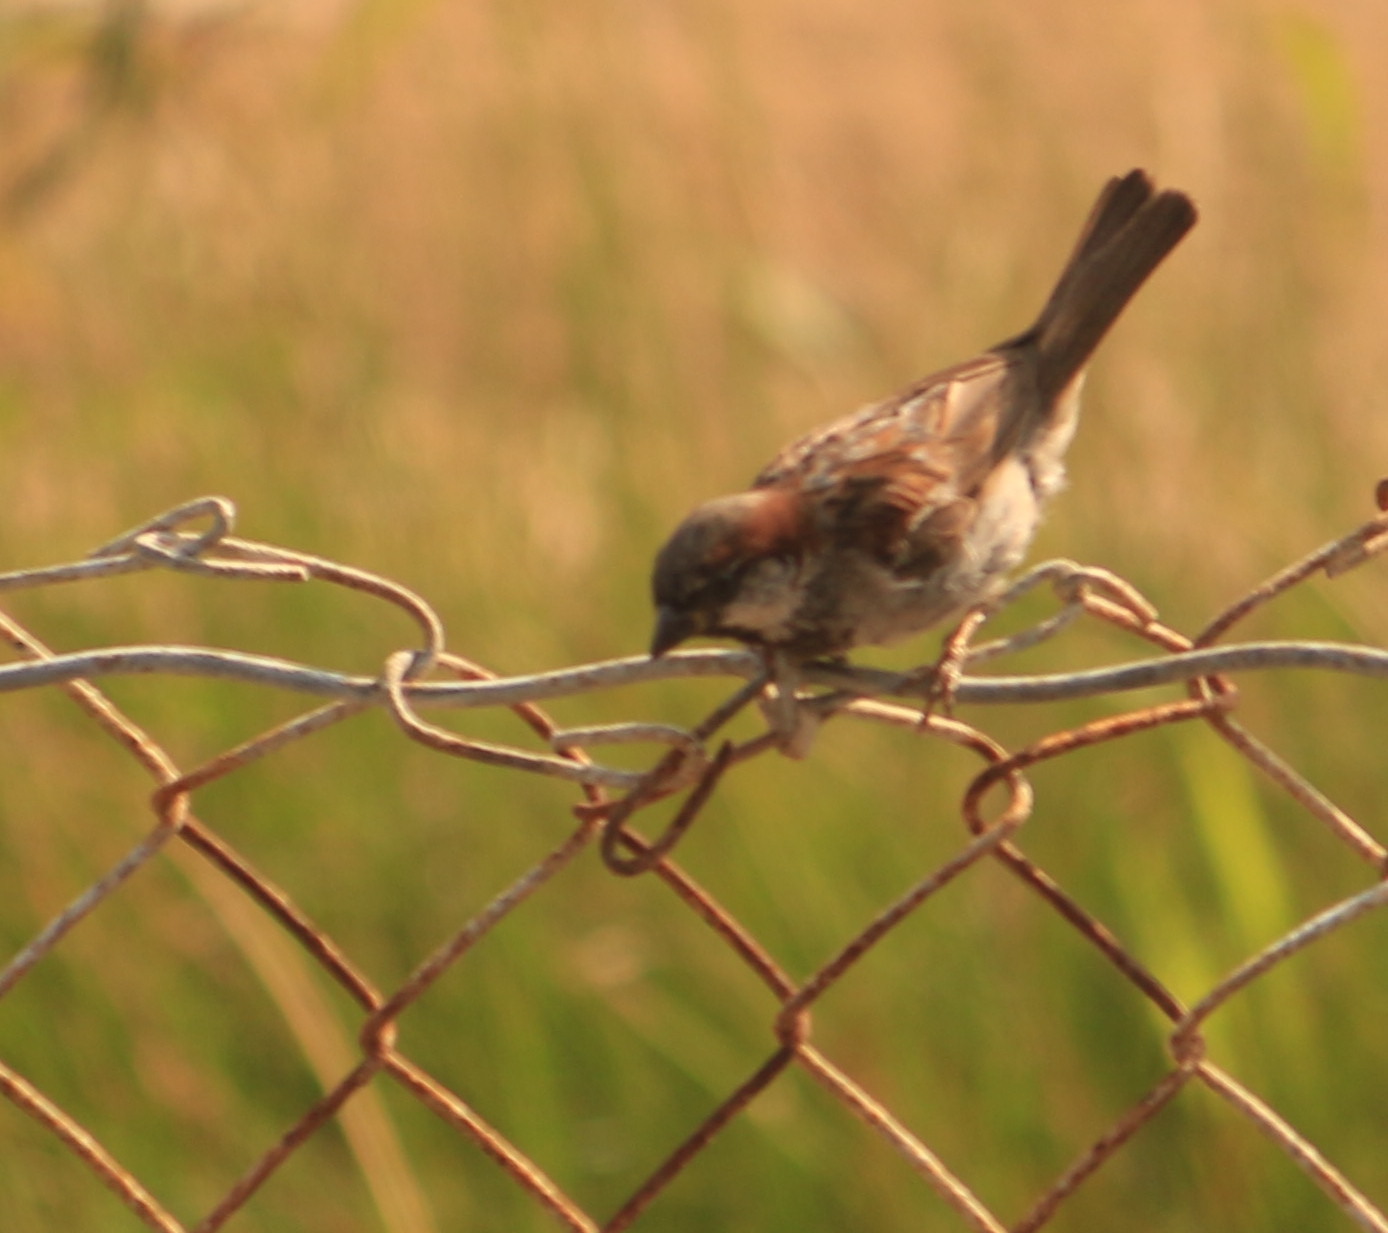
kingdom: Animalia
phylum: Chordata
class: Aves
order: Passeriformes
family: Passeridae
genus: Passer
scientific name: Passer domesticus
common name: House sparrow
